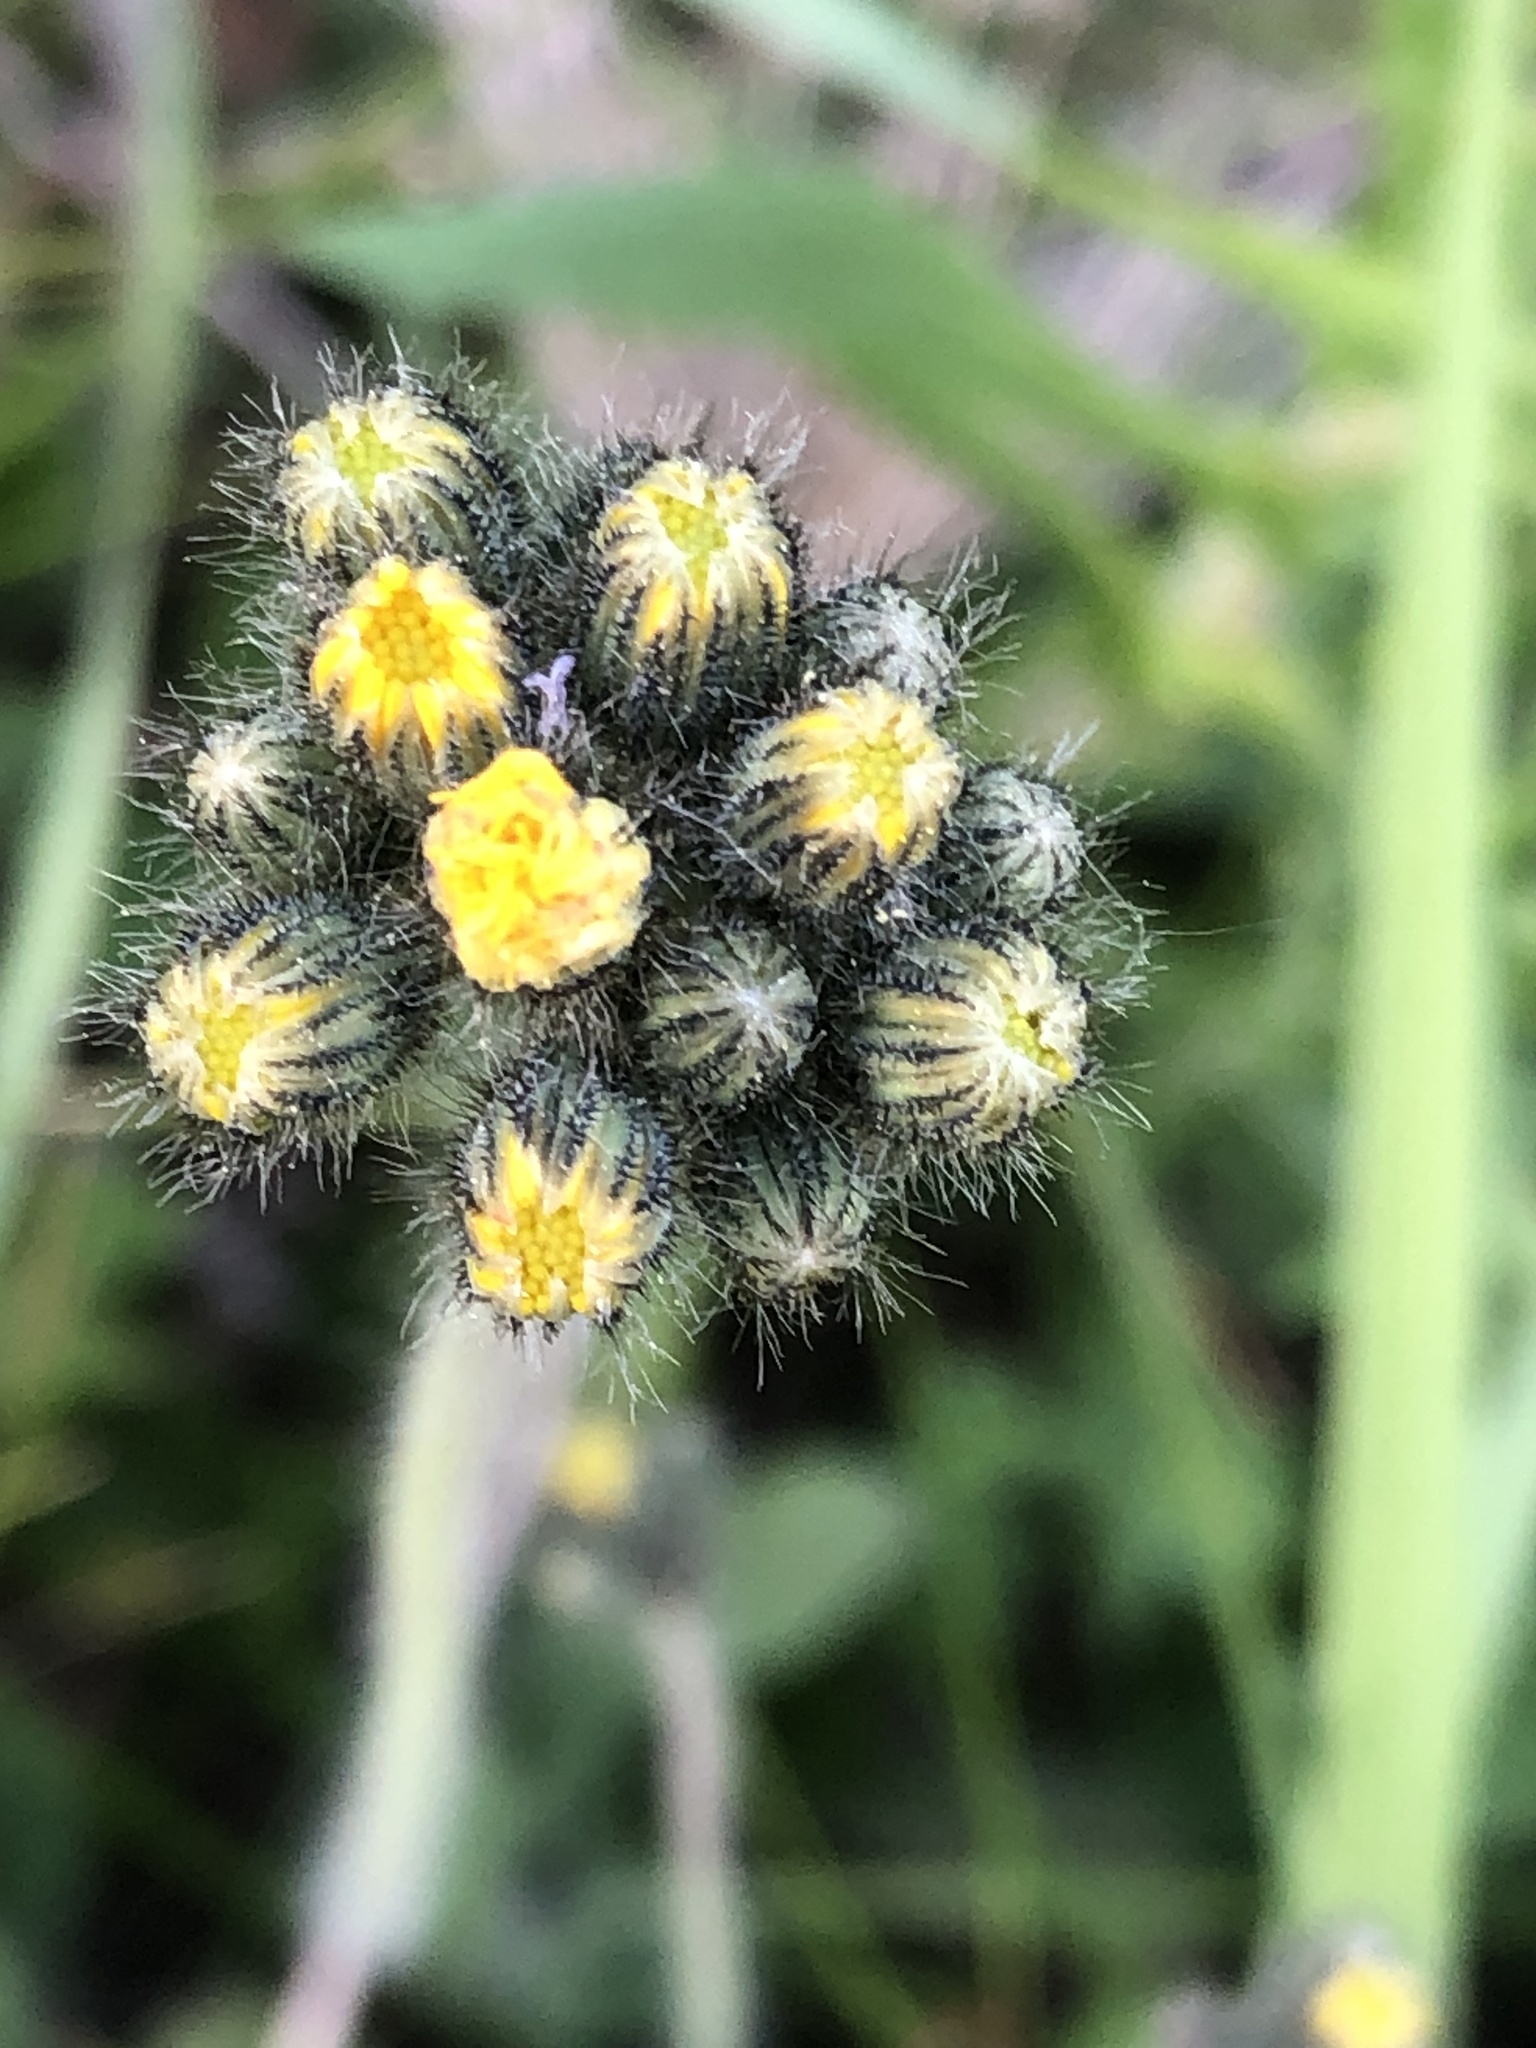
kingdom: Plantae
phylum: Tracheophyta
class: Magnoliopsida
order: Asterales
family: Asteraceae
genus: Pilosella
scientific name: Pilosella caespitosa
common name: Yellow fox-and-cubs
